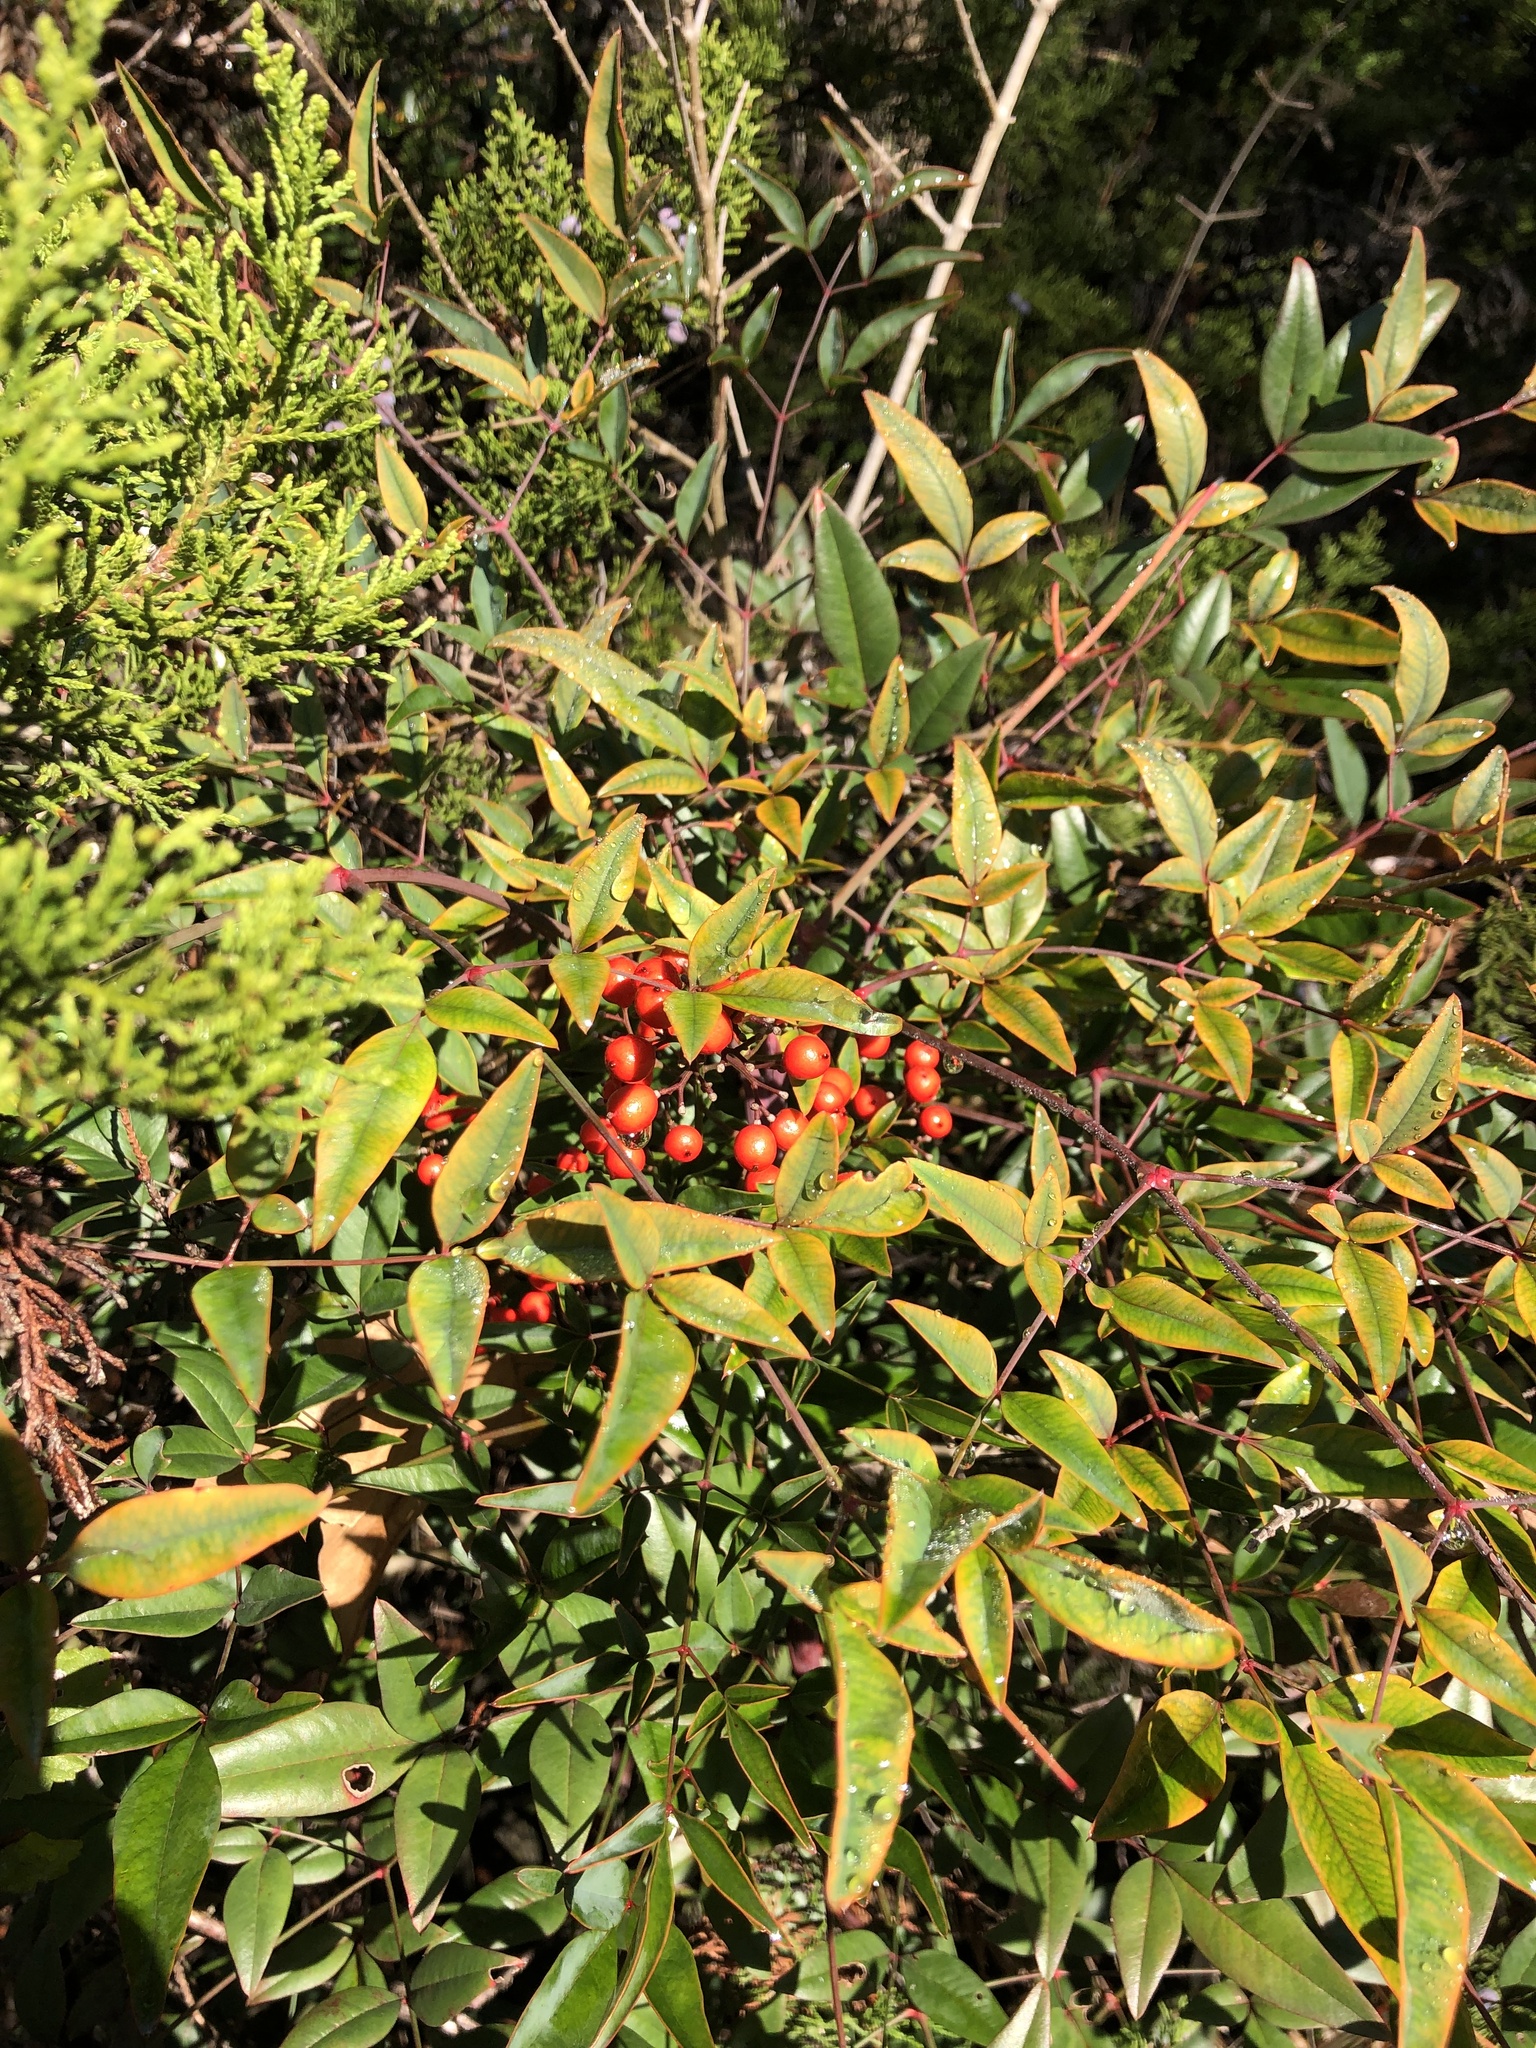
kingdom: Plantae
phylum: Tracheophyta
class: Magnoliopsida
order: Ranunculales
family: Berberidaceae
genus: Nandina
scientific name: Nandina domestica
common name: Sacred bamboo
